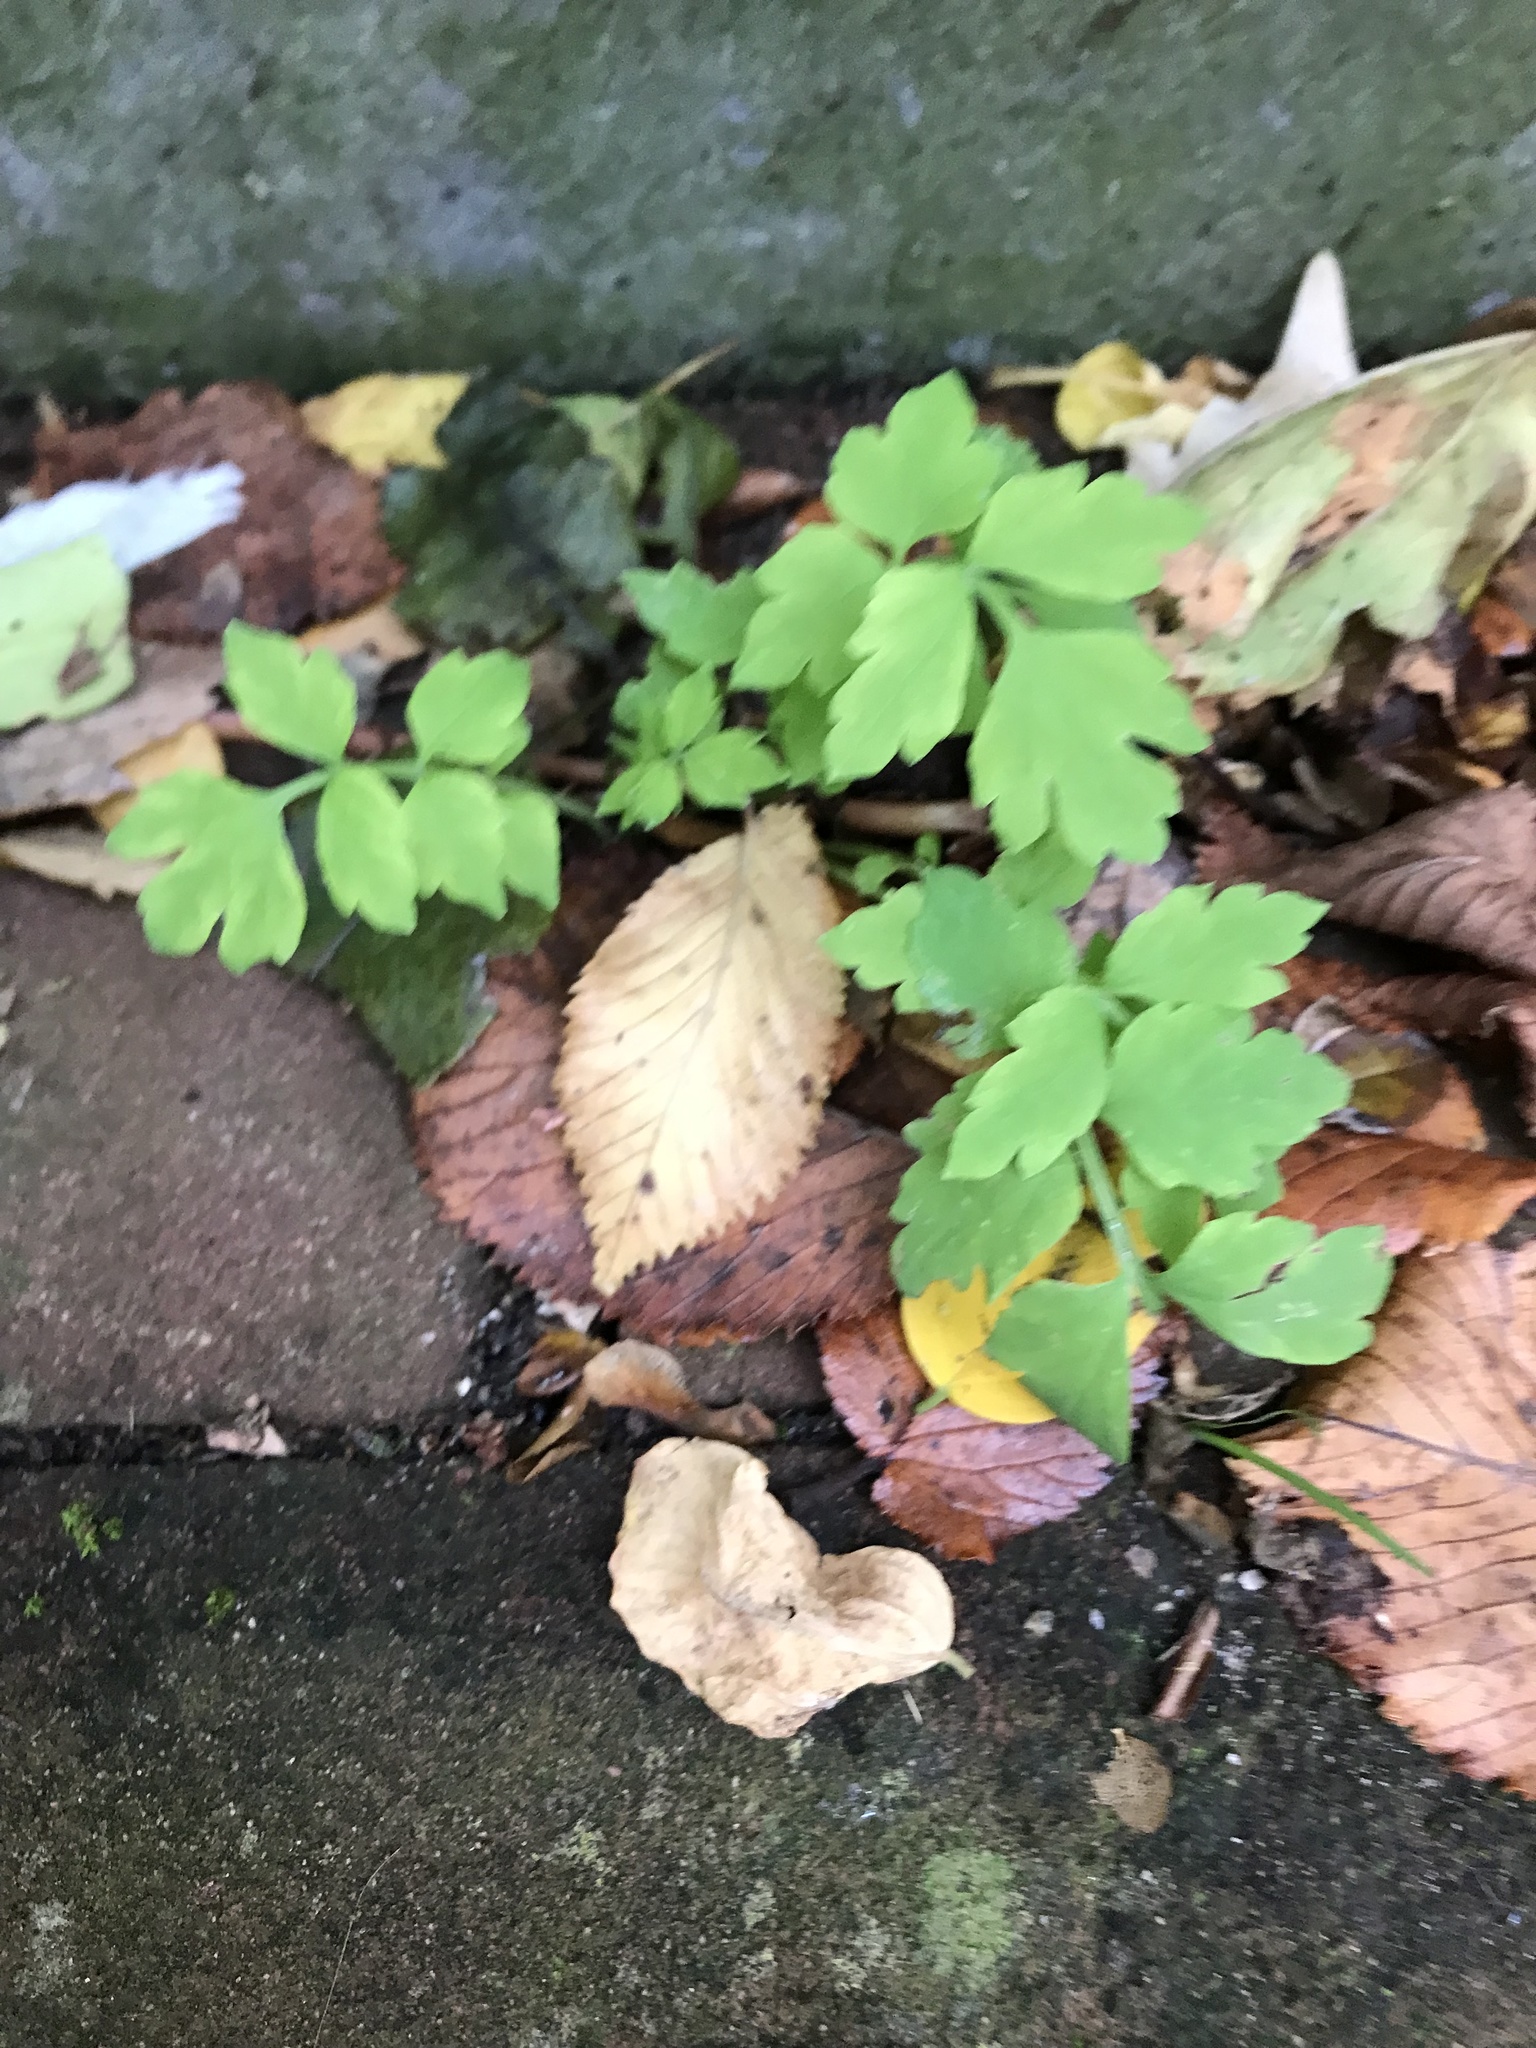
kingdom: Plantae
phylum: Tracheophyta
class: Magnoliopsida
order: Ranunculales
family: Papaveraceae
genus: Papaver
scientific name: Papaver cambricum
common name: Poppy
